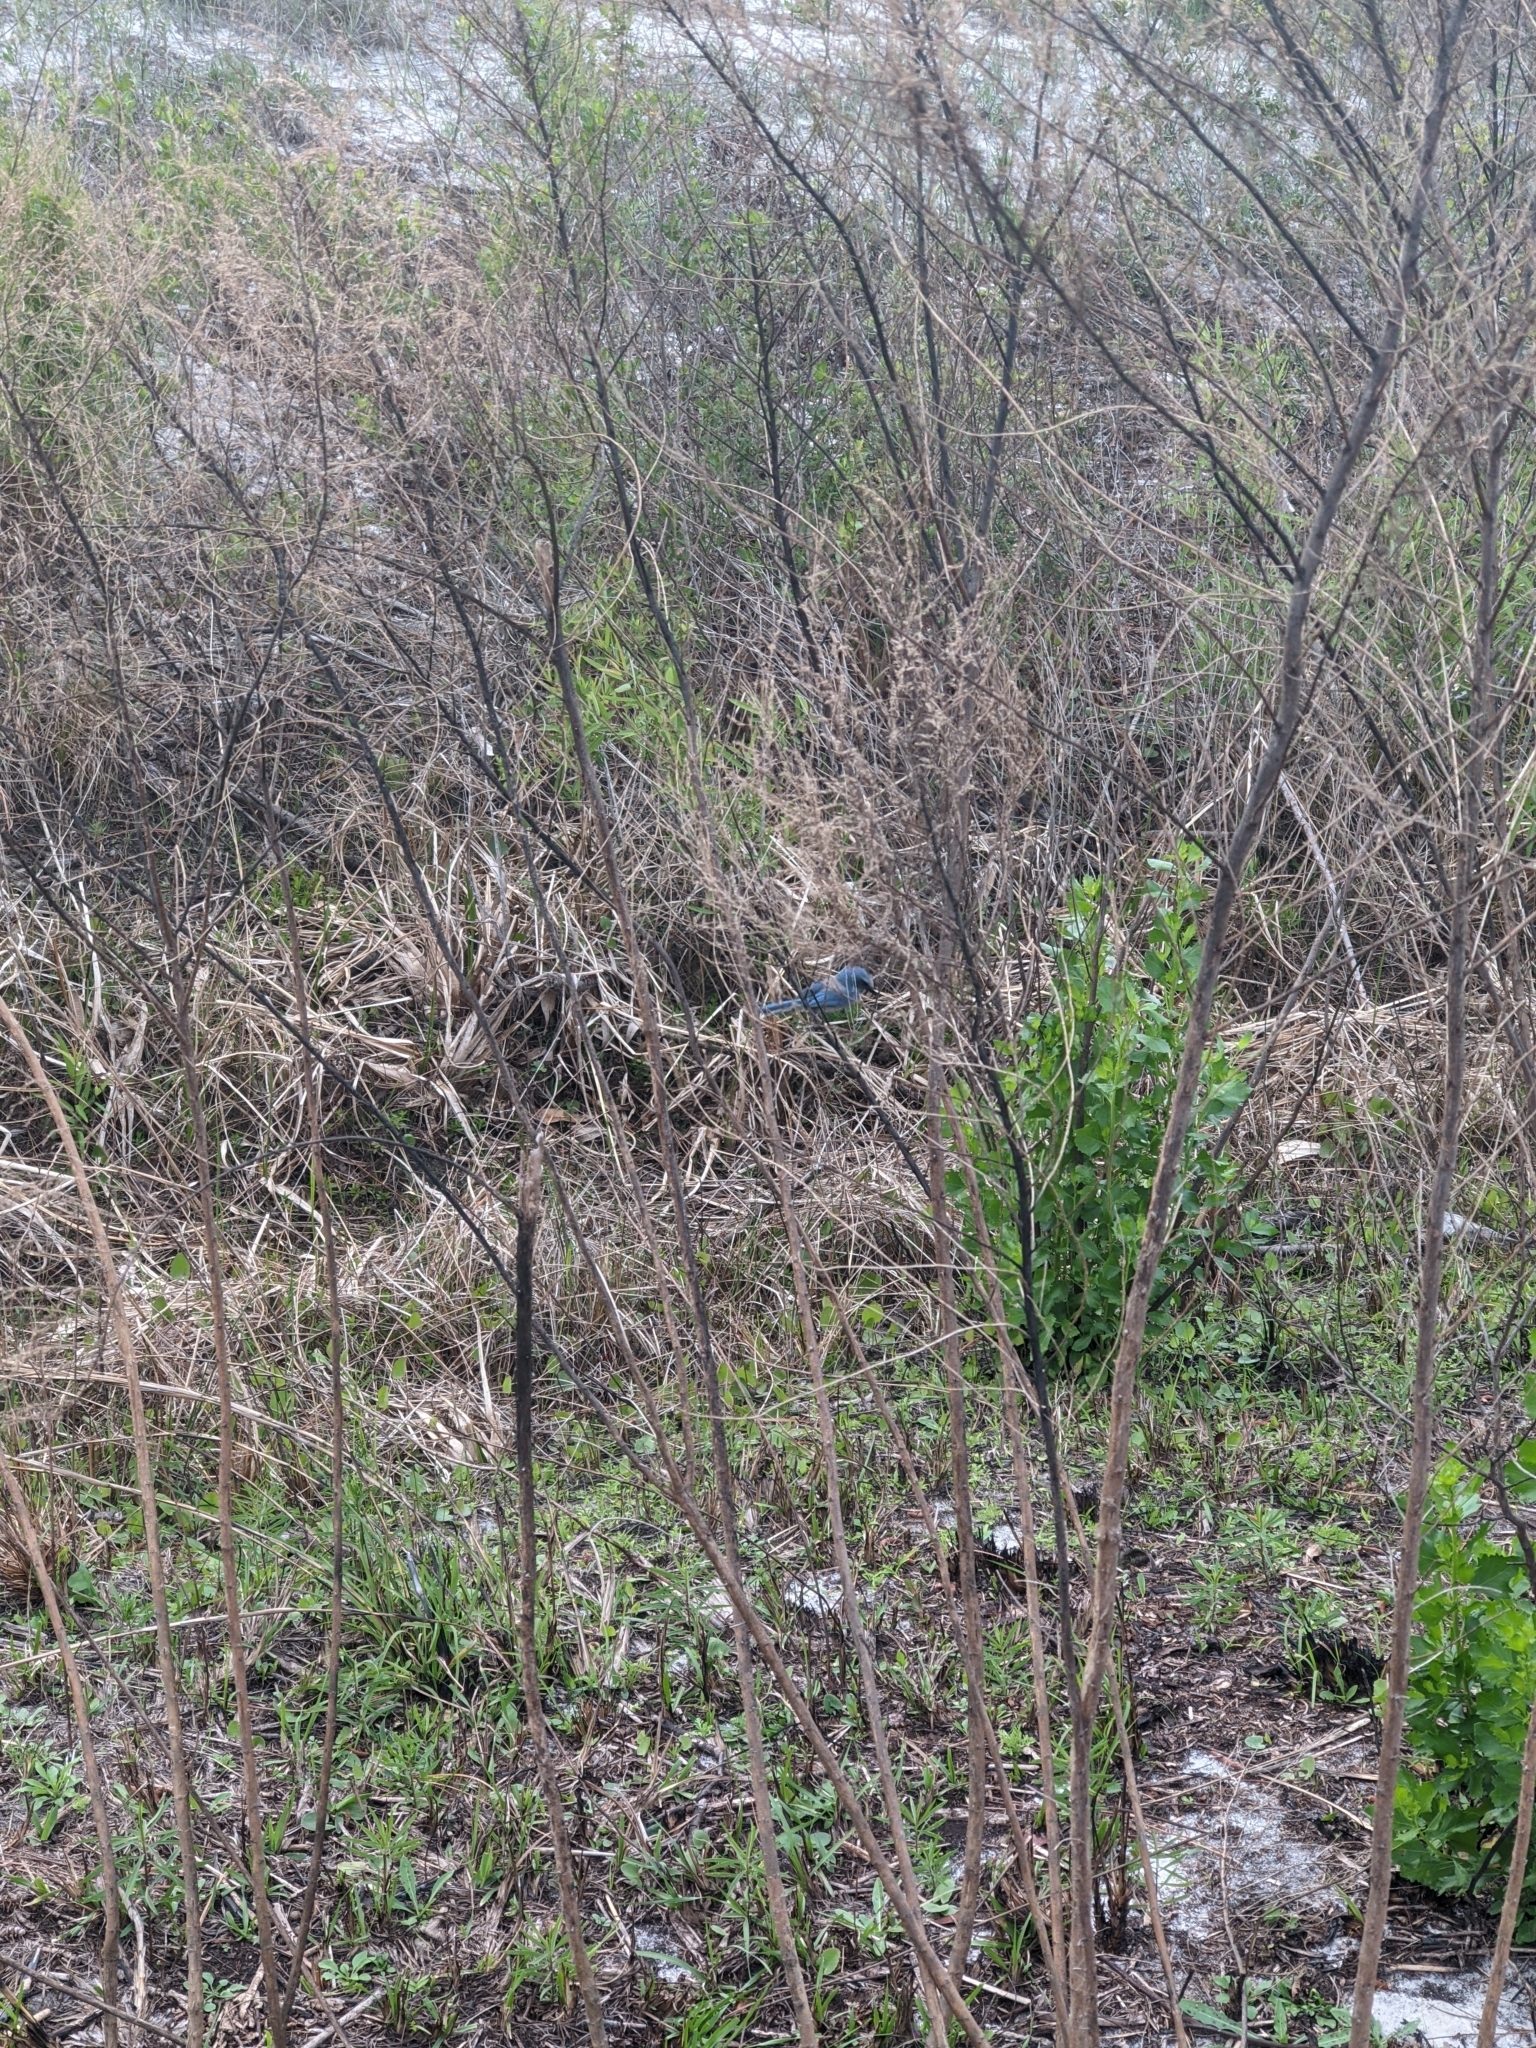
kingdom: Animalia
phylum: Chordata
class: Aves
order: Passeriformes
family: Corvidae
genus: Aphelocoma
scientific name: Aphelocoma coerulescens
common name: Florida scrub jay
